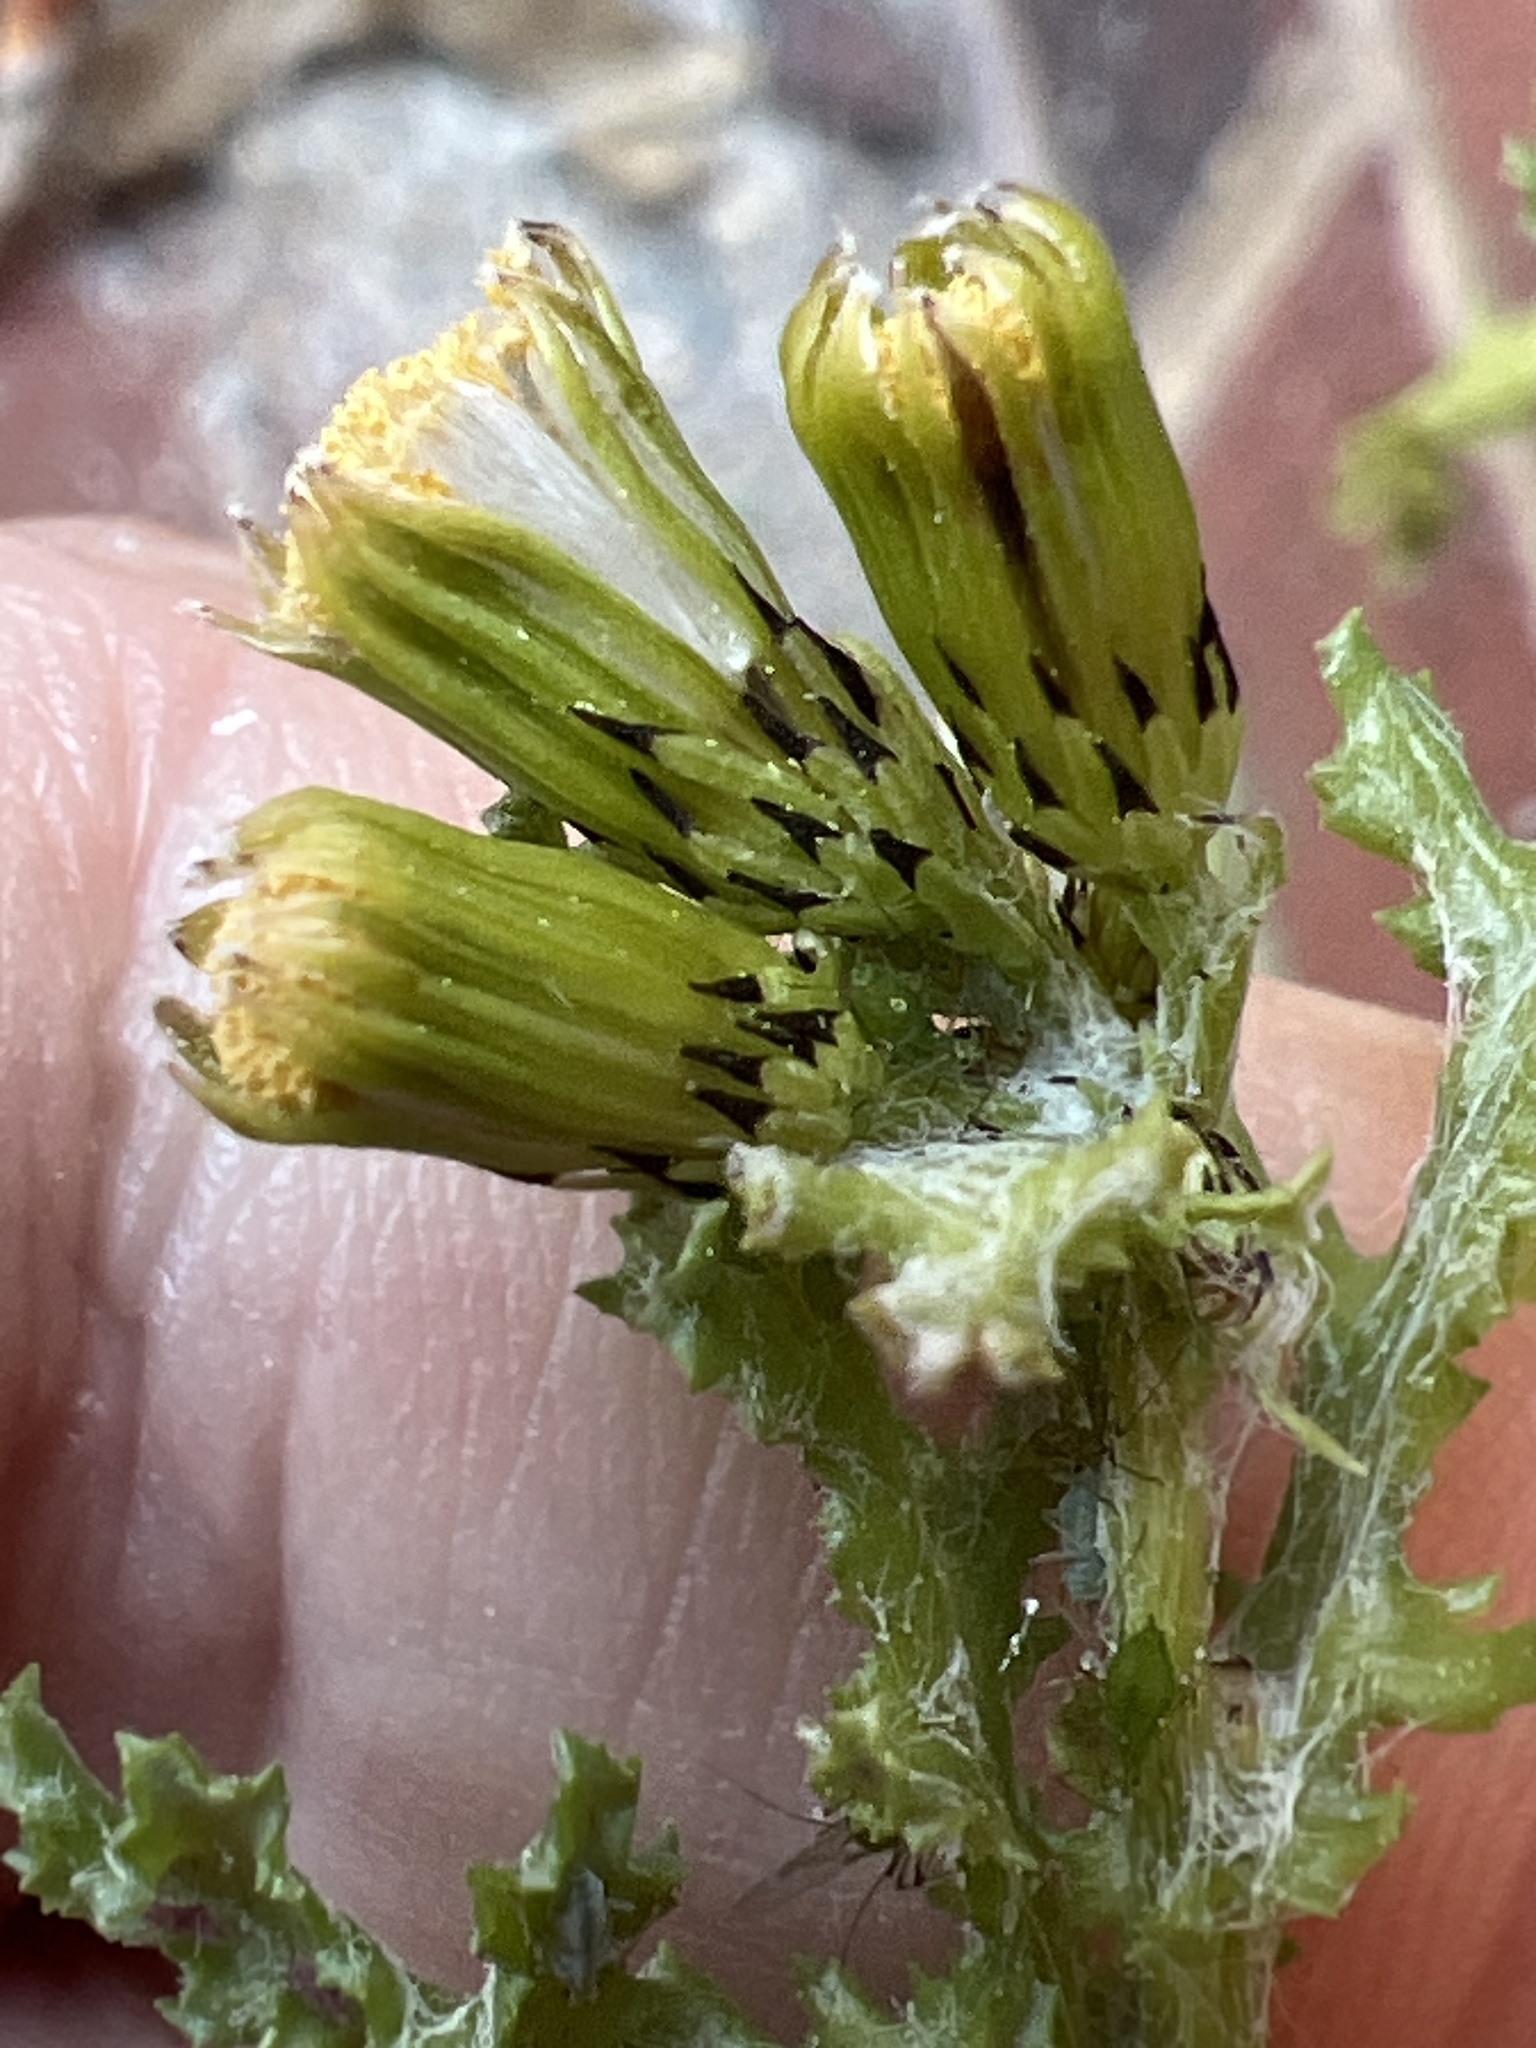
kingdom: Plantae
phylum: Tracheophyta
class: Magnoliopsida
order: Asterales
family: Asteraceae
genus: Senecio
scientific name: Senecio vulgaris
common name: Old-man-in-the-spring
